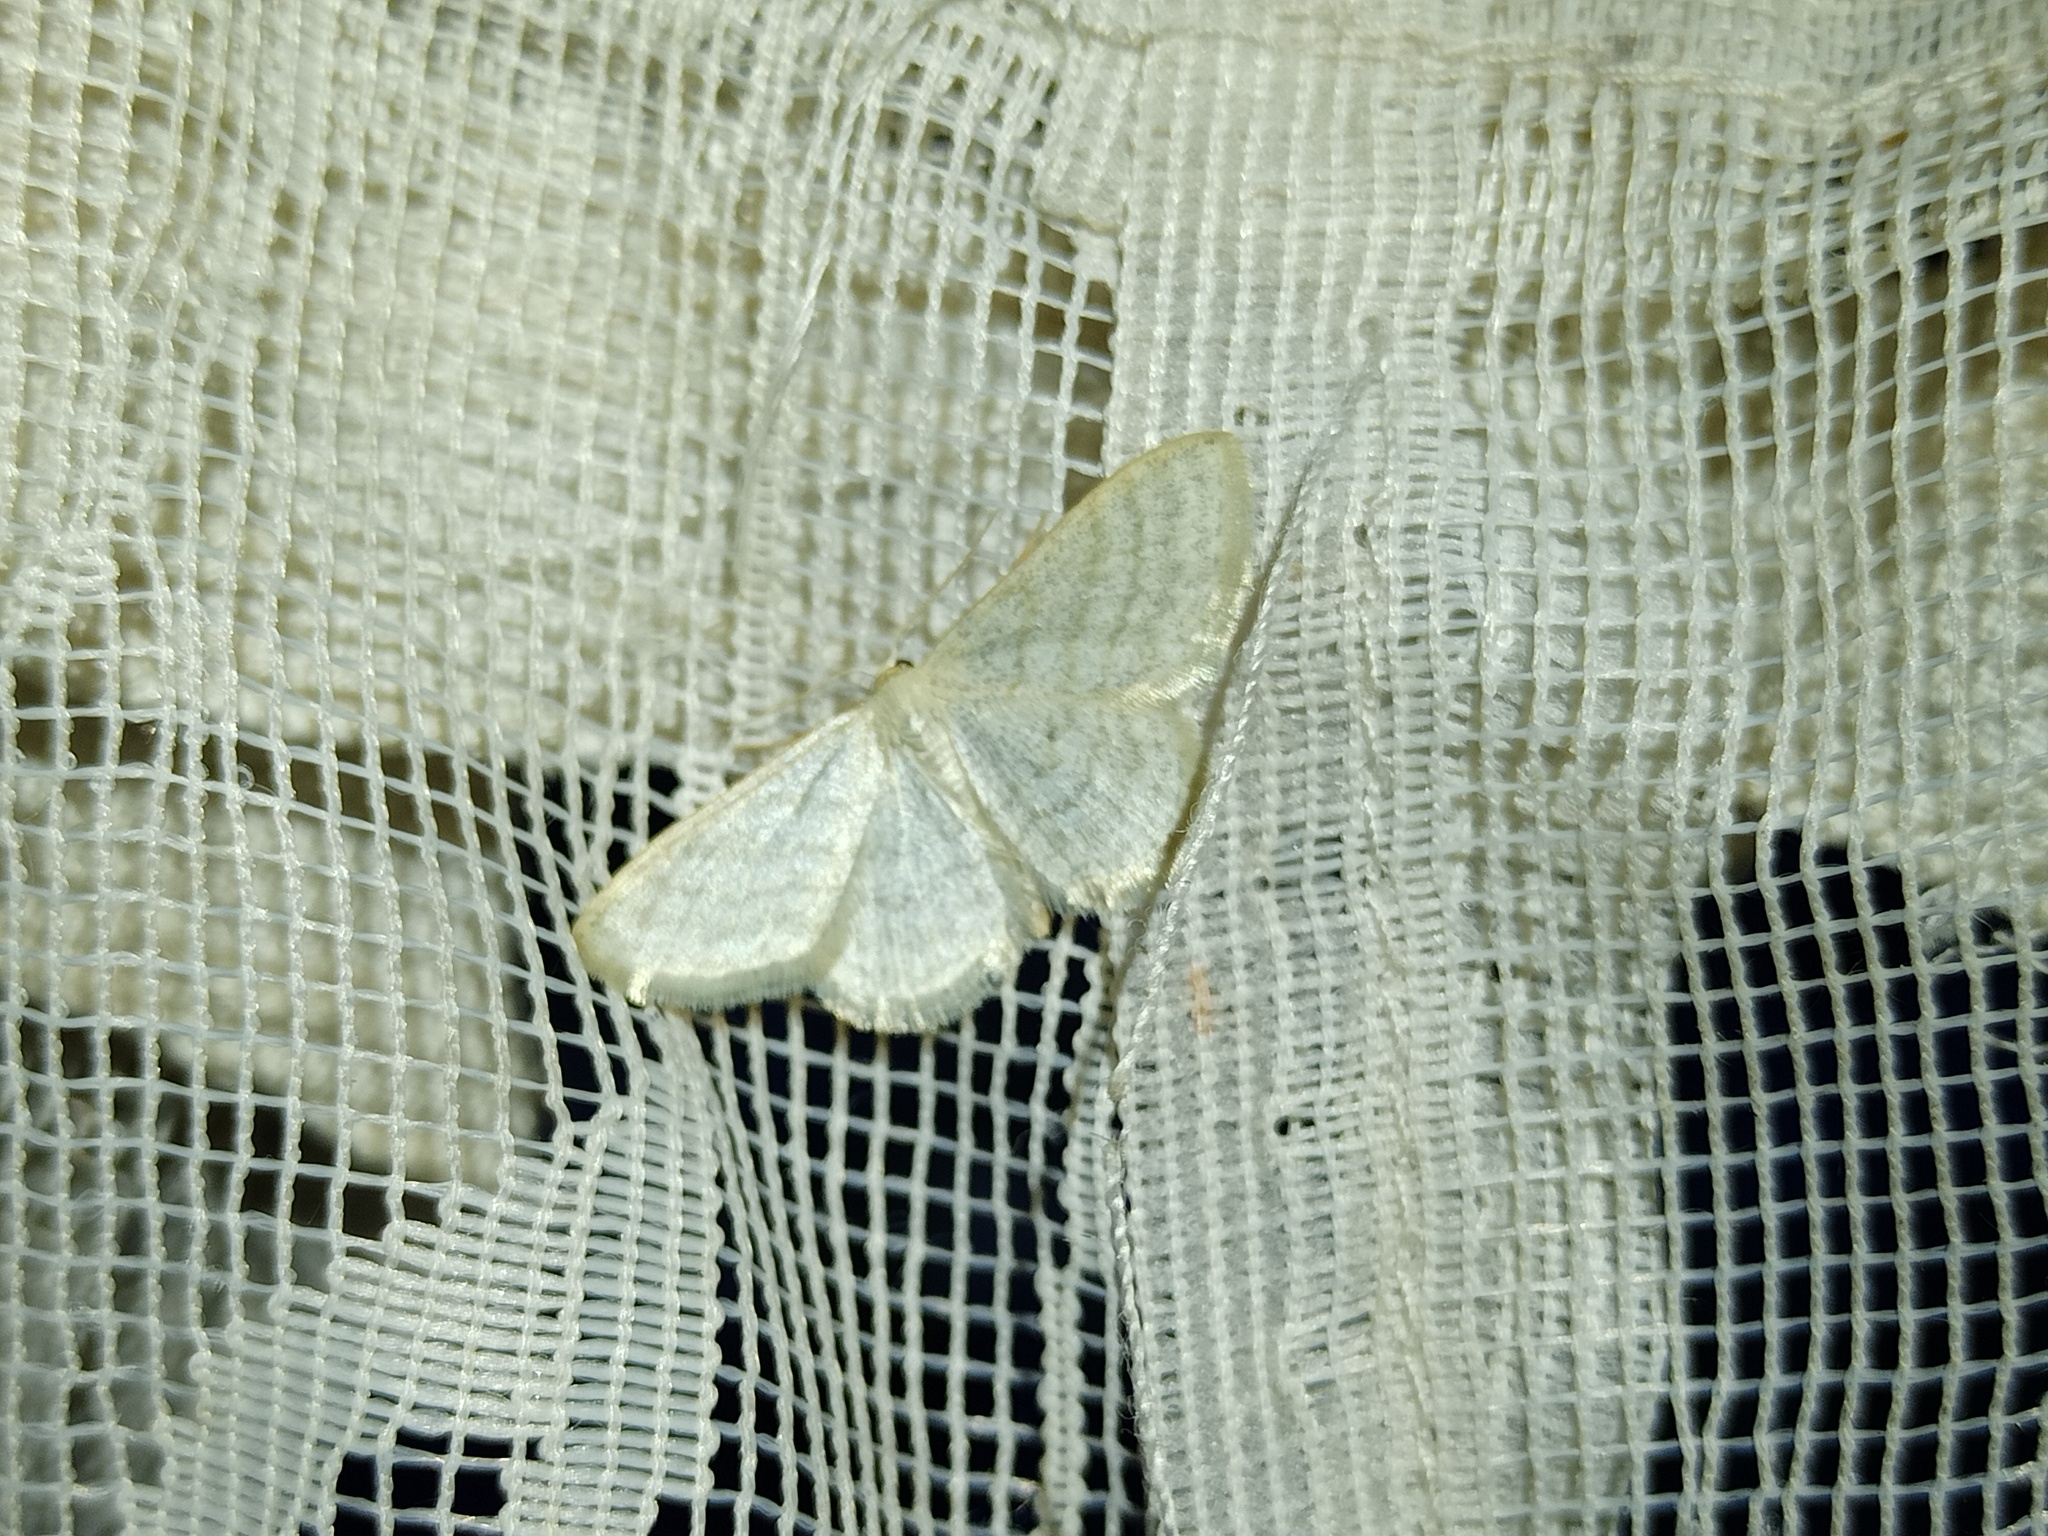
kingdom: Animalia
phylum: Arthropoda
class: Insecta
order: Lepidoptera
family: Geometridae
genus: Idaea
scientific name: Idaea subsericeata
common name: Satin wave
